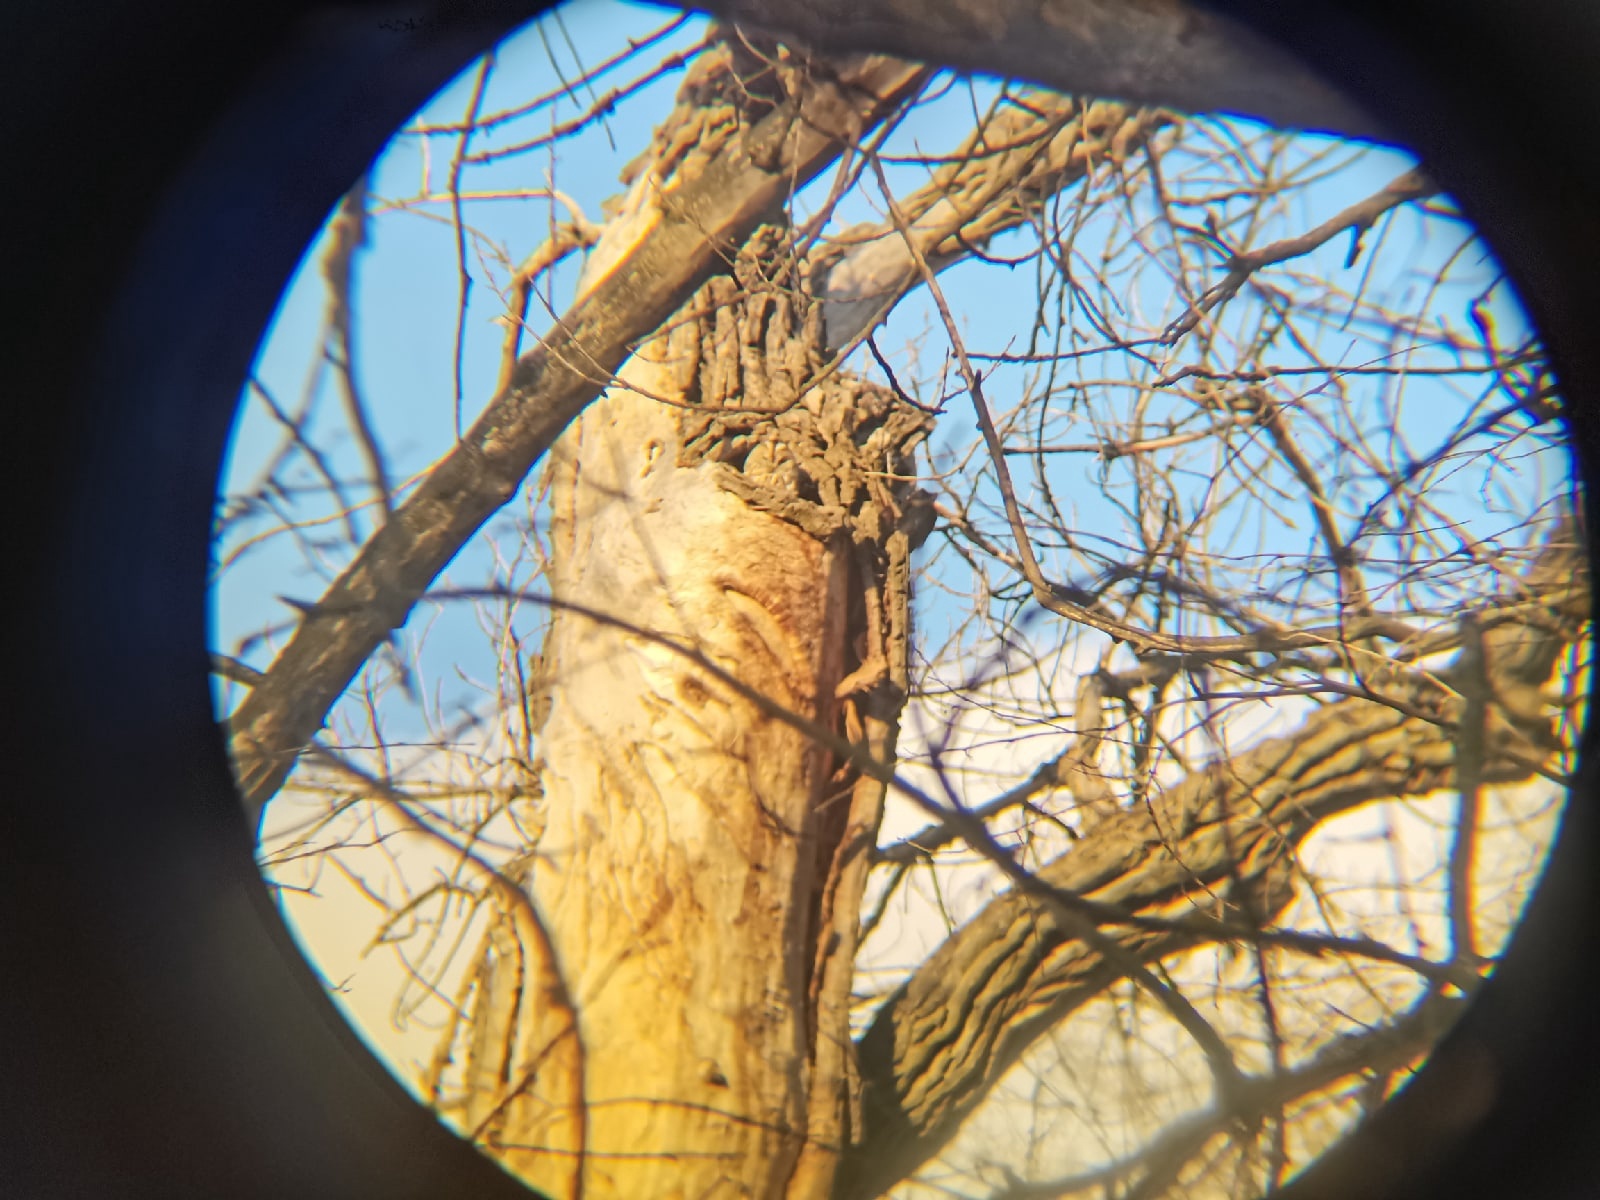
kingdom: Animalia
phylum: Chordata
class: Aves
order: Strigiformes
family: Strigidae
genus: Strix
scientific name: Strix aluco
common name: Tawny owl
